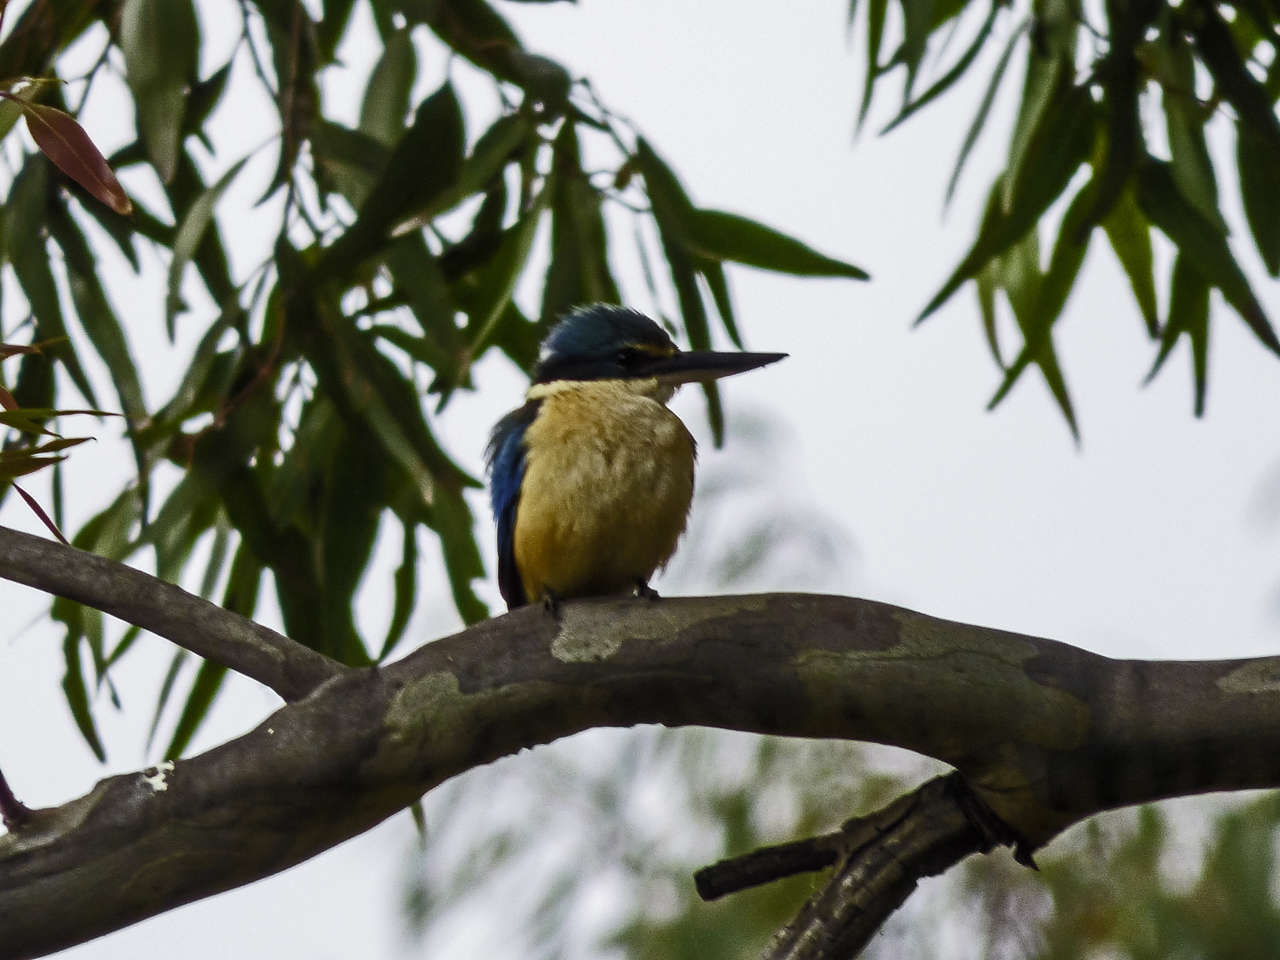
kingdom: Animalia
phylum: Chordata
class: Aves
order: Coraciiformes
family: Alcedinidae
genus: Todiramphus
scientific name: Todiramphus sanctus
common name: Sacred kingfisher
